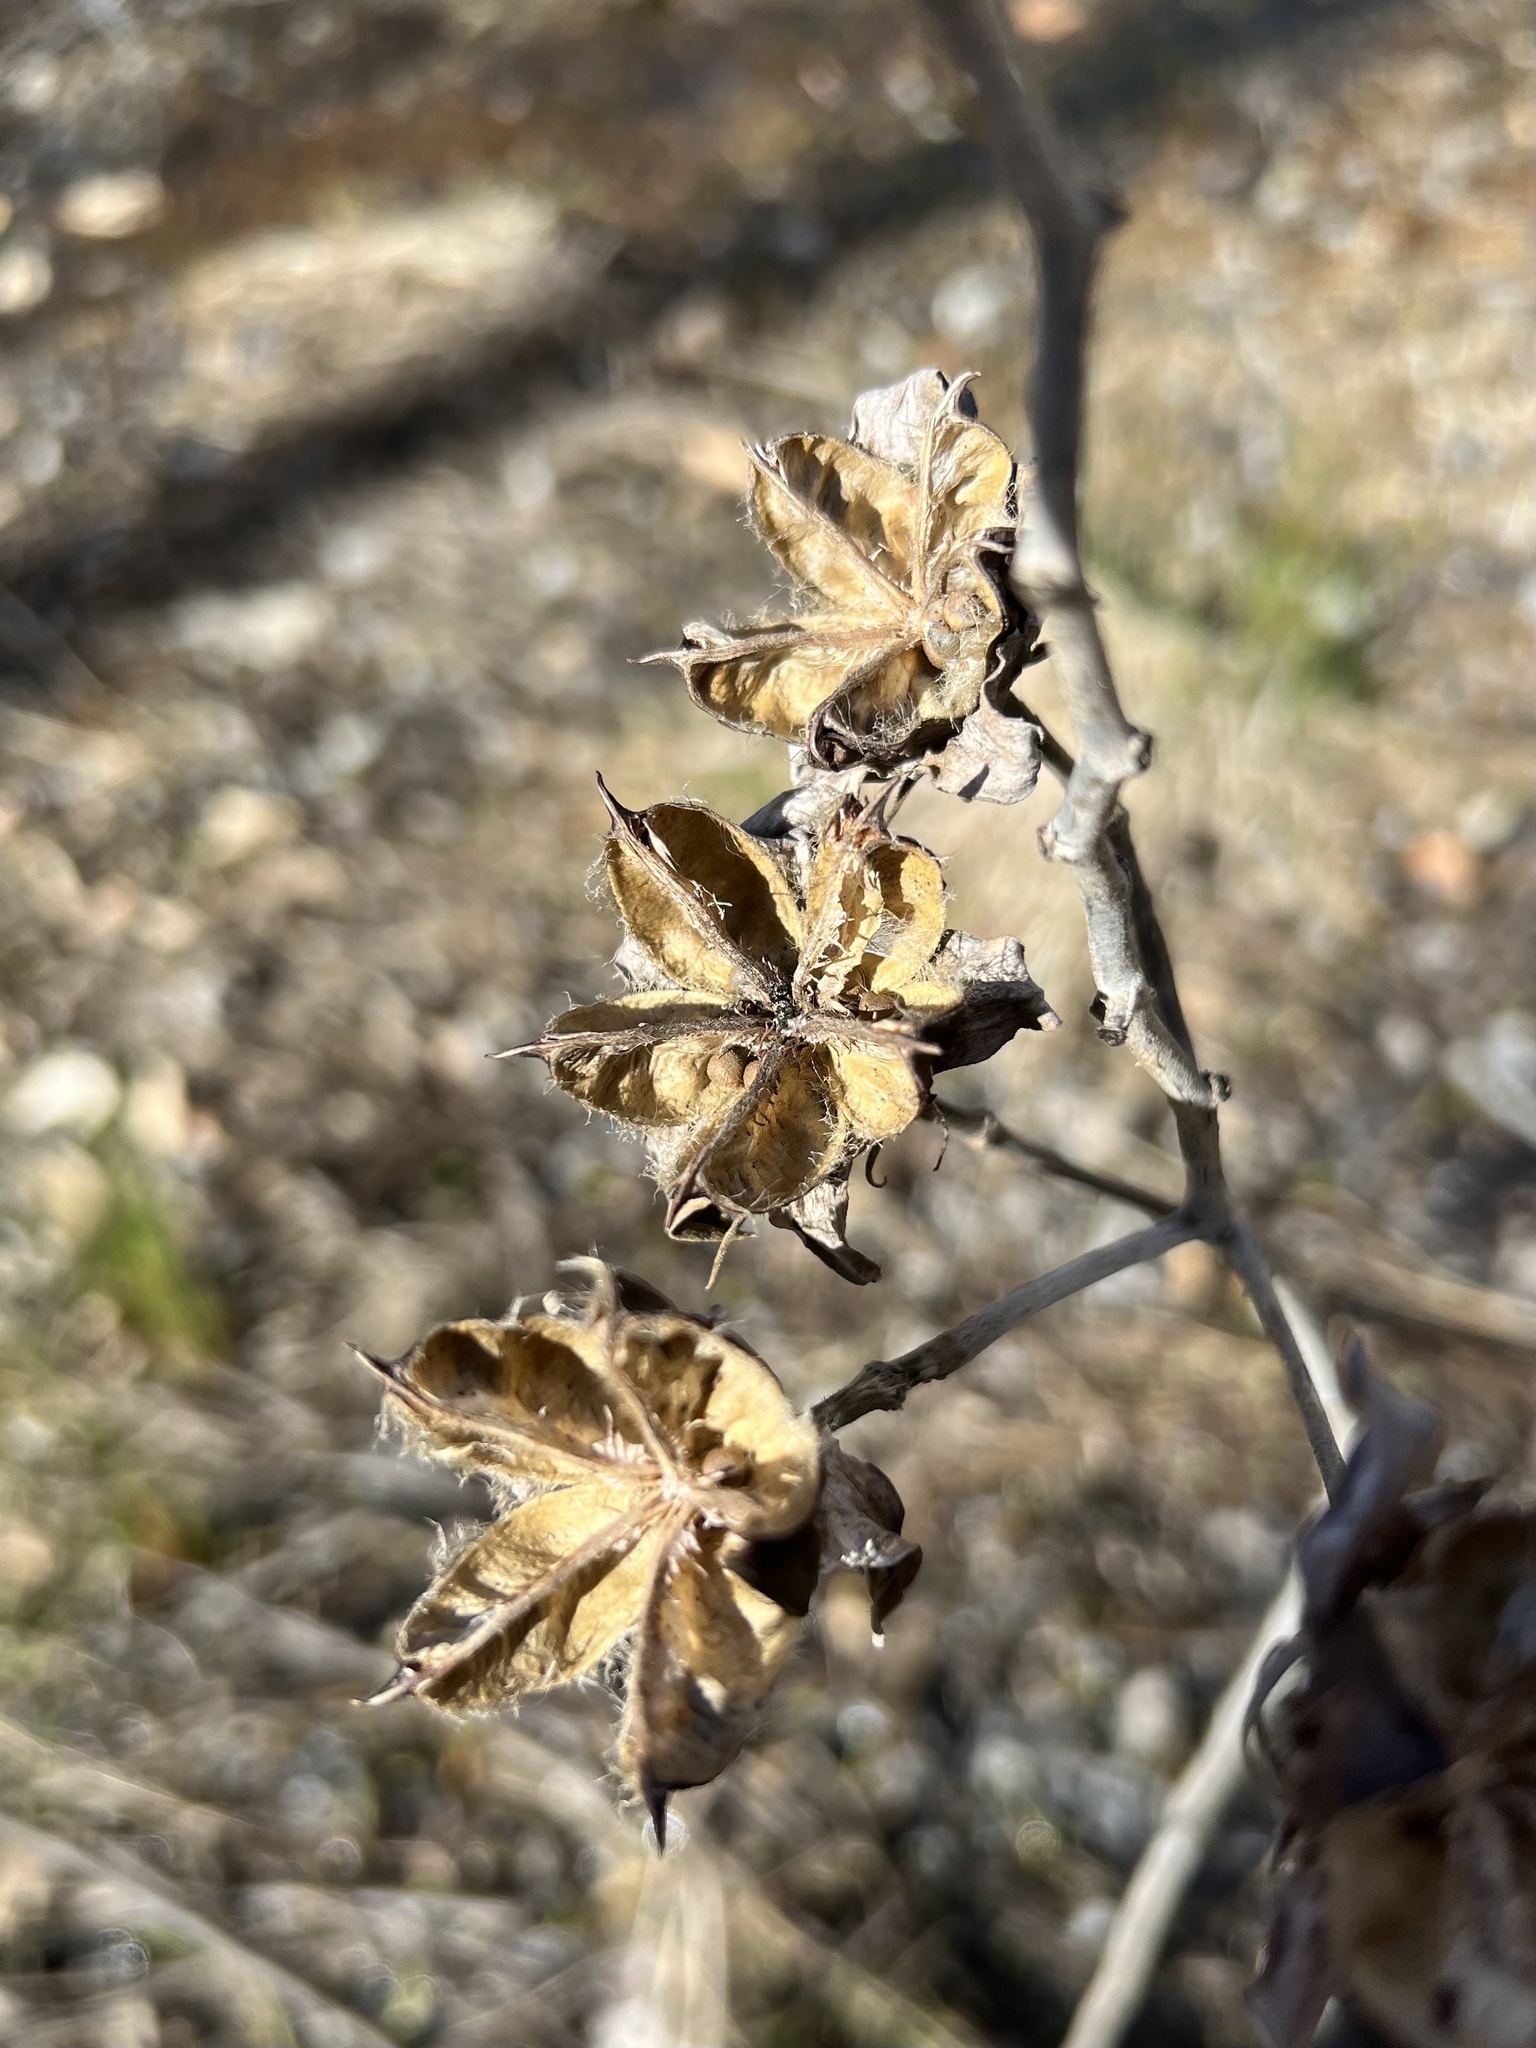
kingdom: Plantae
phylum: Tracheophyta
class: Magnoliopsida
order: Malvales
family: Malvaceae
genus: Hibiscus
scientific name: Hibiscus moscheutos
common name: Common rose-mallow
